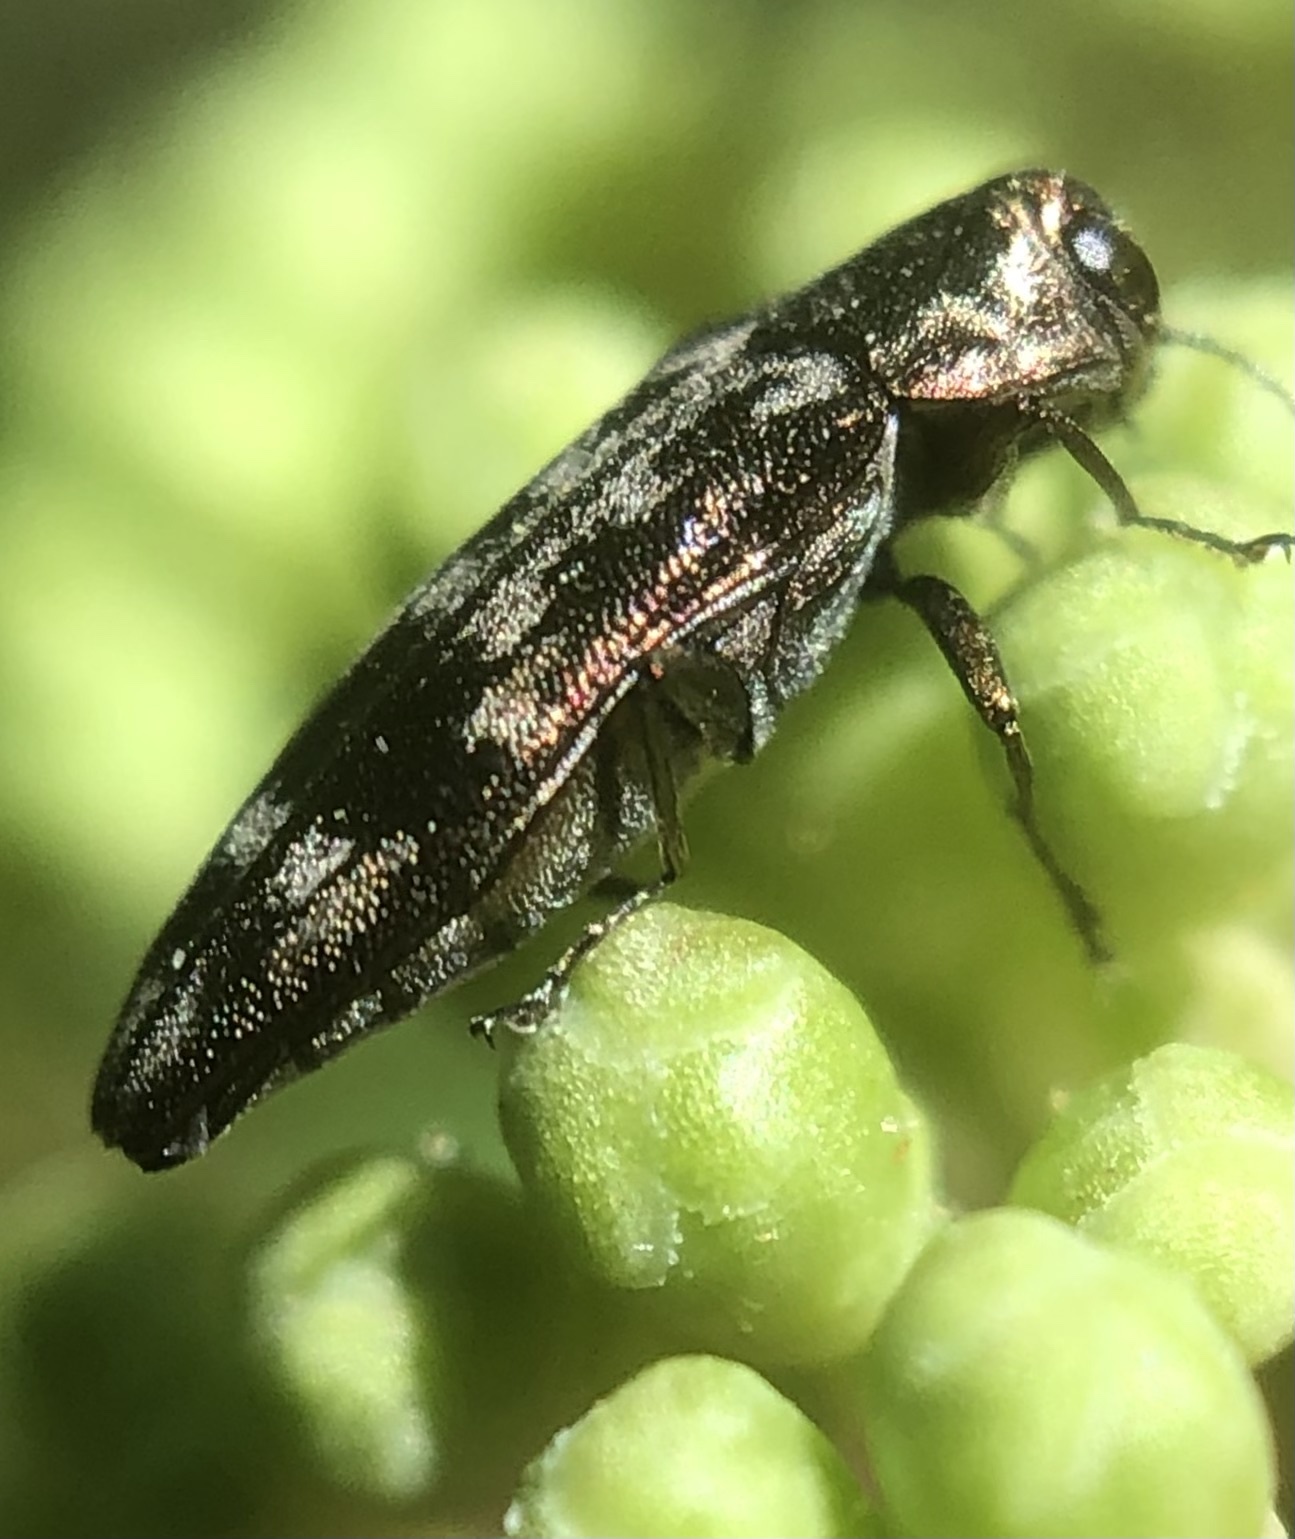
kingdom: Animalia
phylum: Arthropoda
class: Insecta
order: Coleoptera
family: Buprestidae
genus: Agrilus
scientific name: Agrilus lecontei
